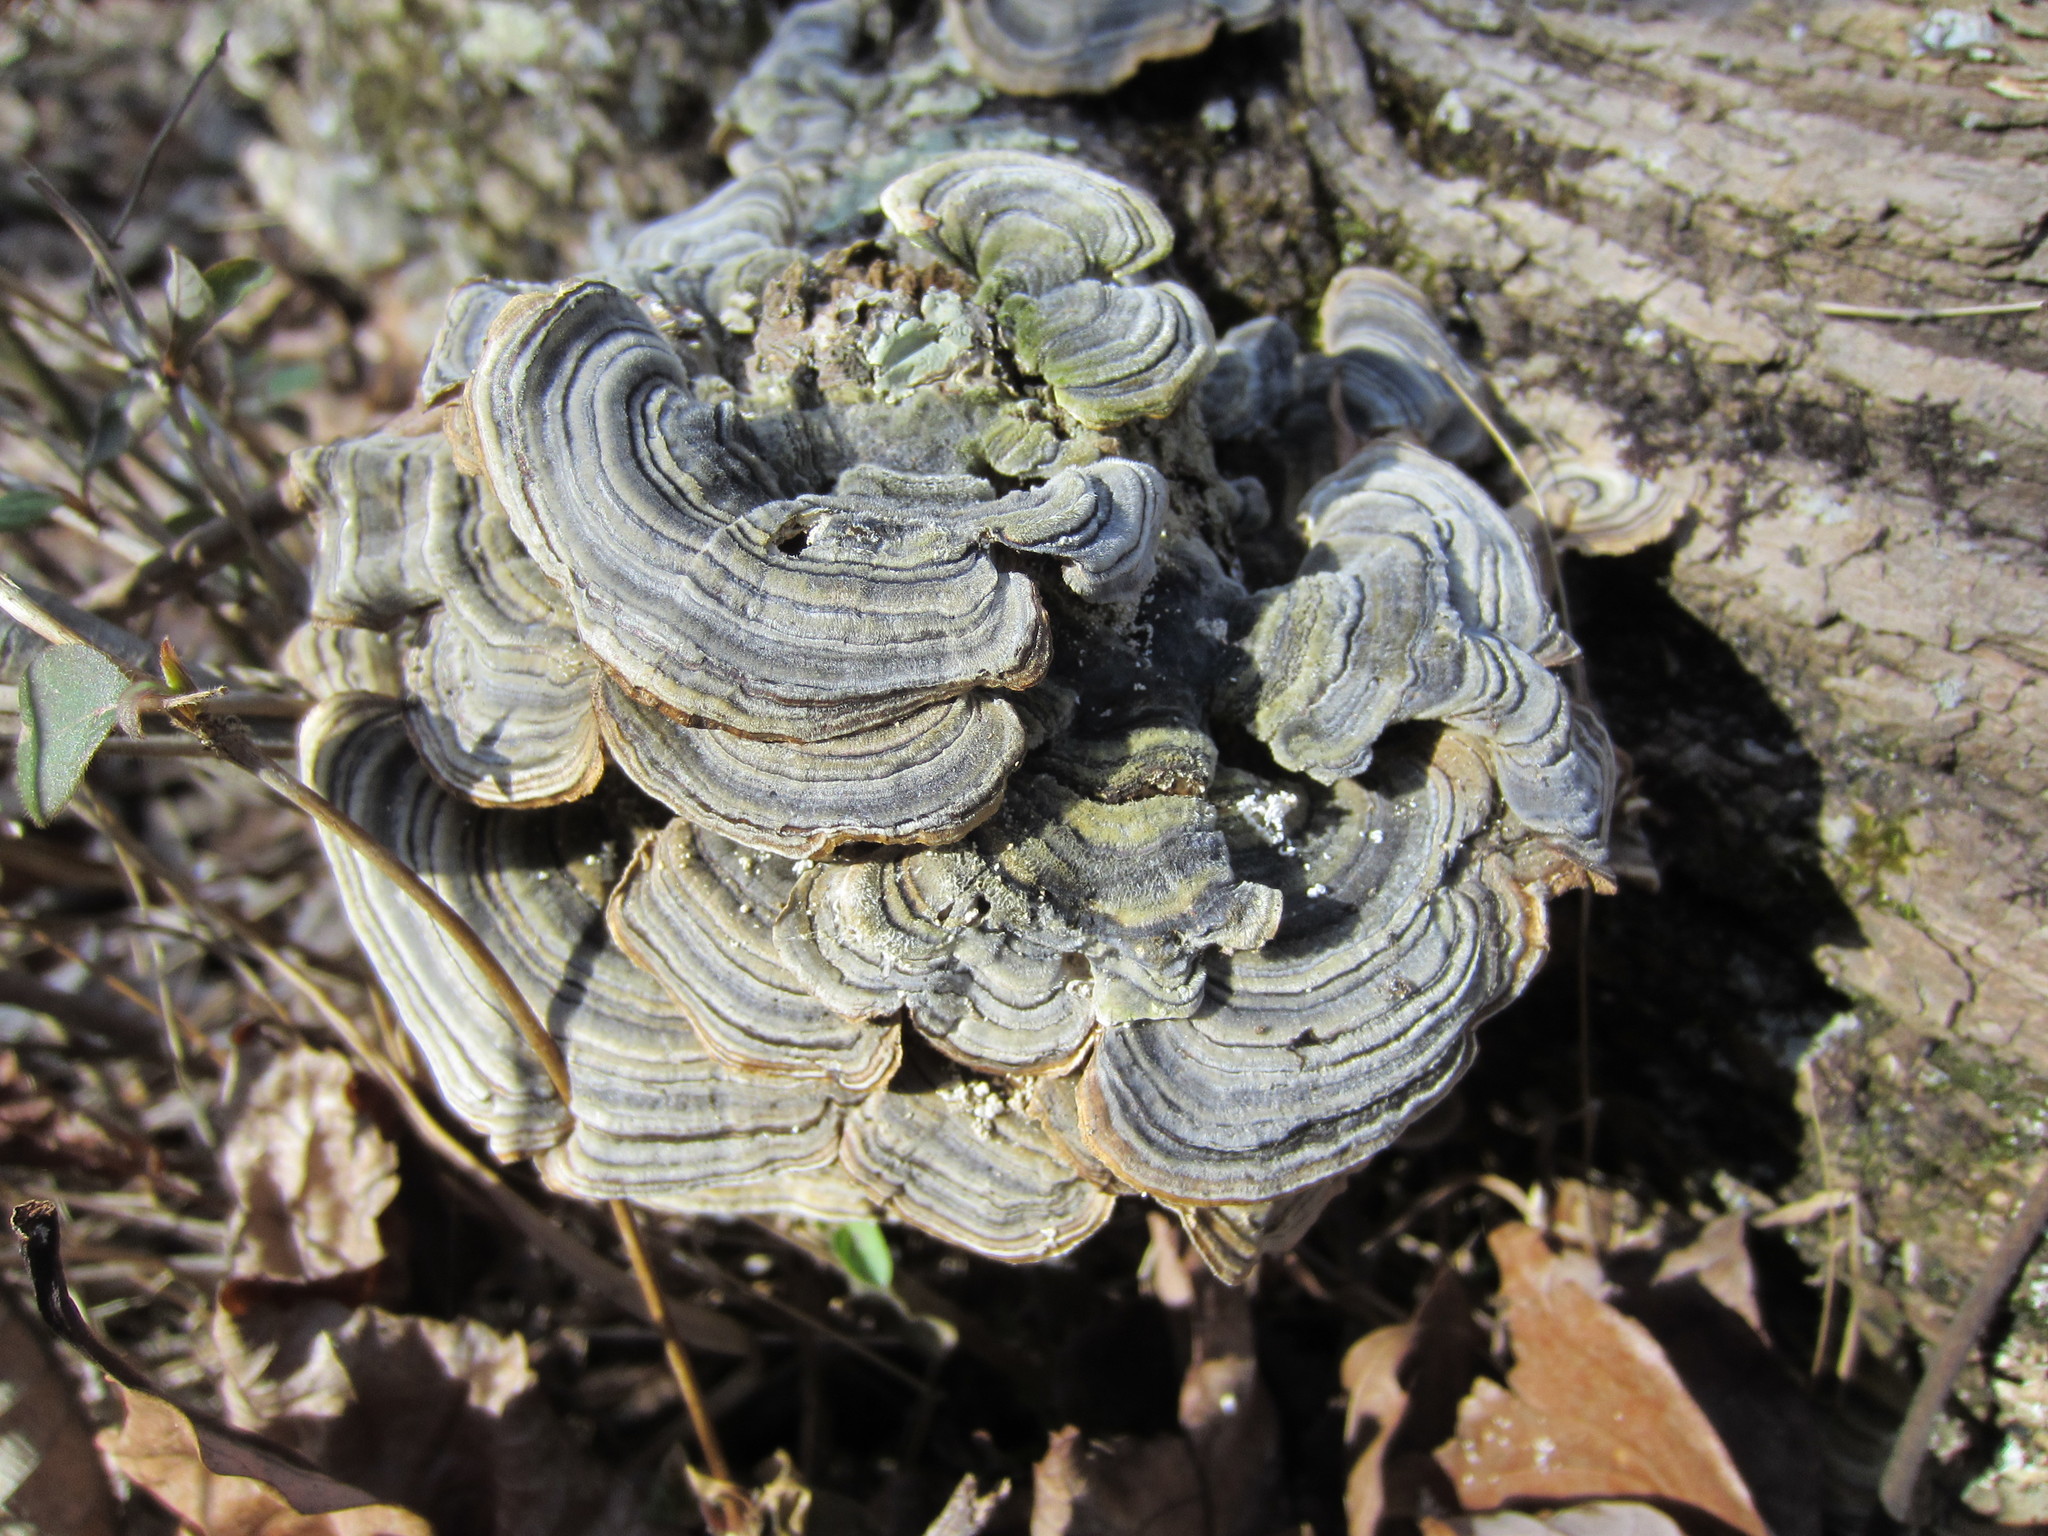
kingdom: Fungi
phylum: Basidiomycota
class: Agaricomycetes
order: Polyporales
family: Polyporaceae
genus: Trametes
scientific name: Trametes versicolor
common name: Turkeytail
